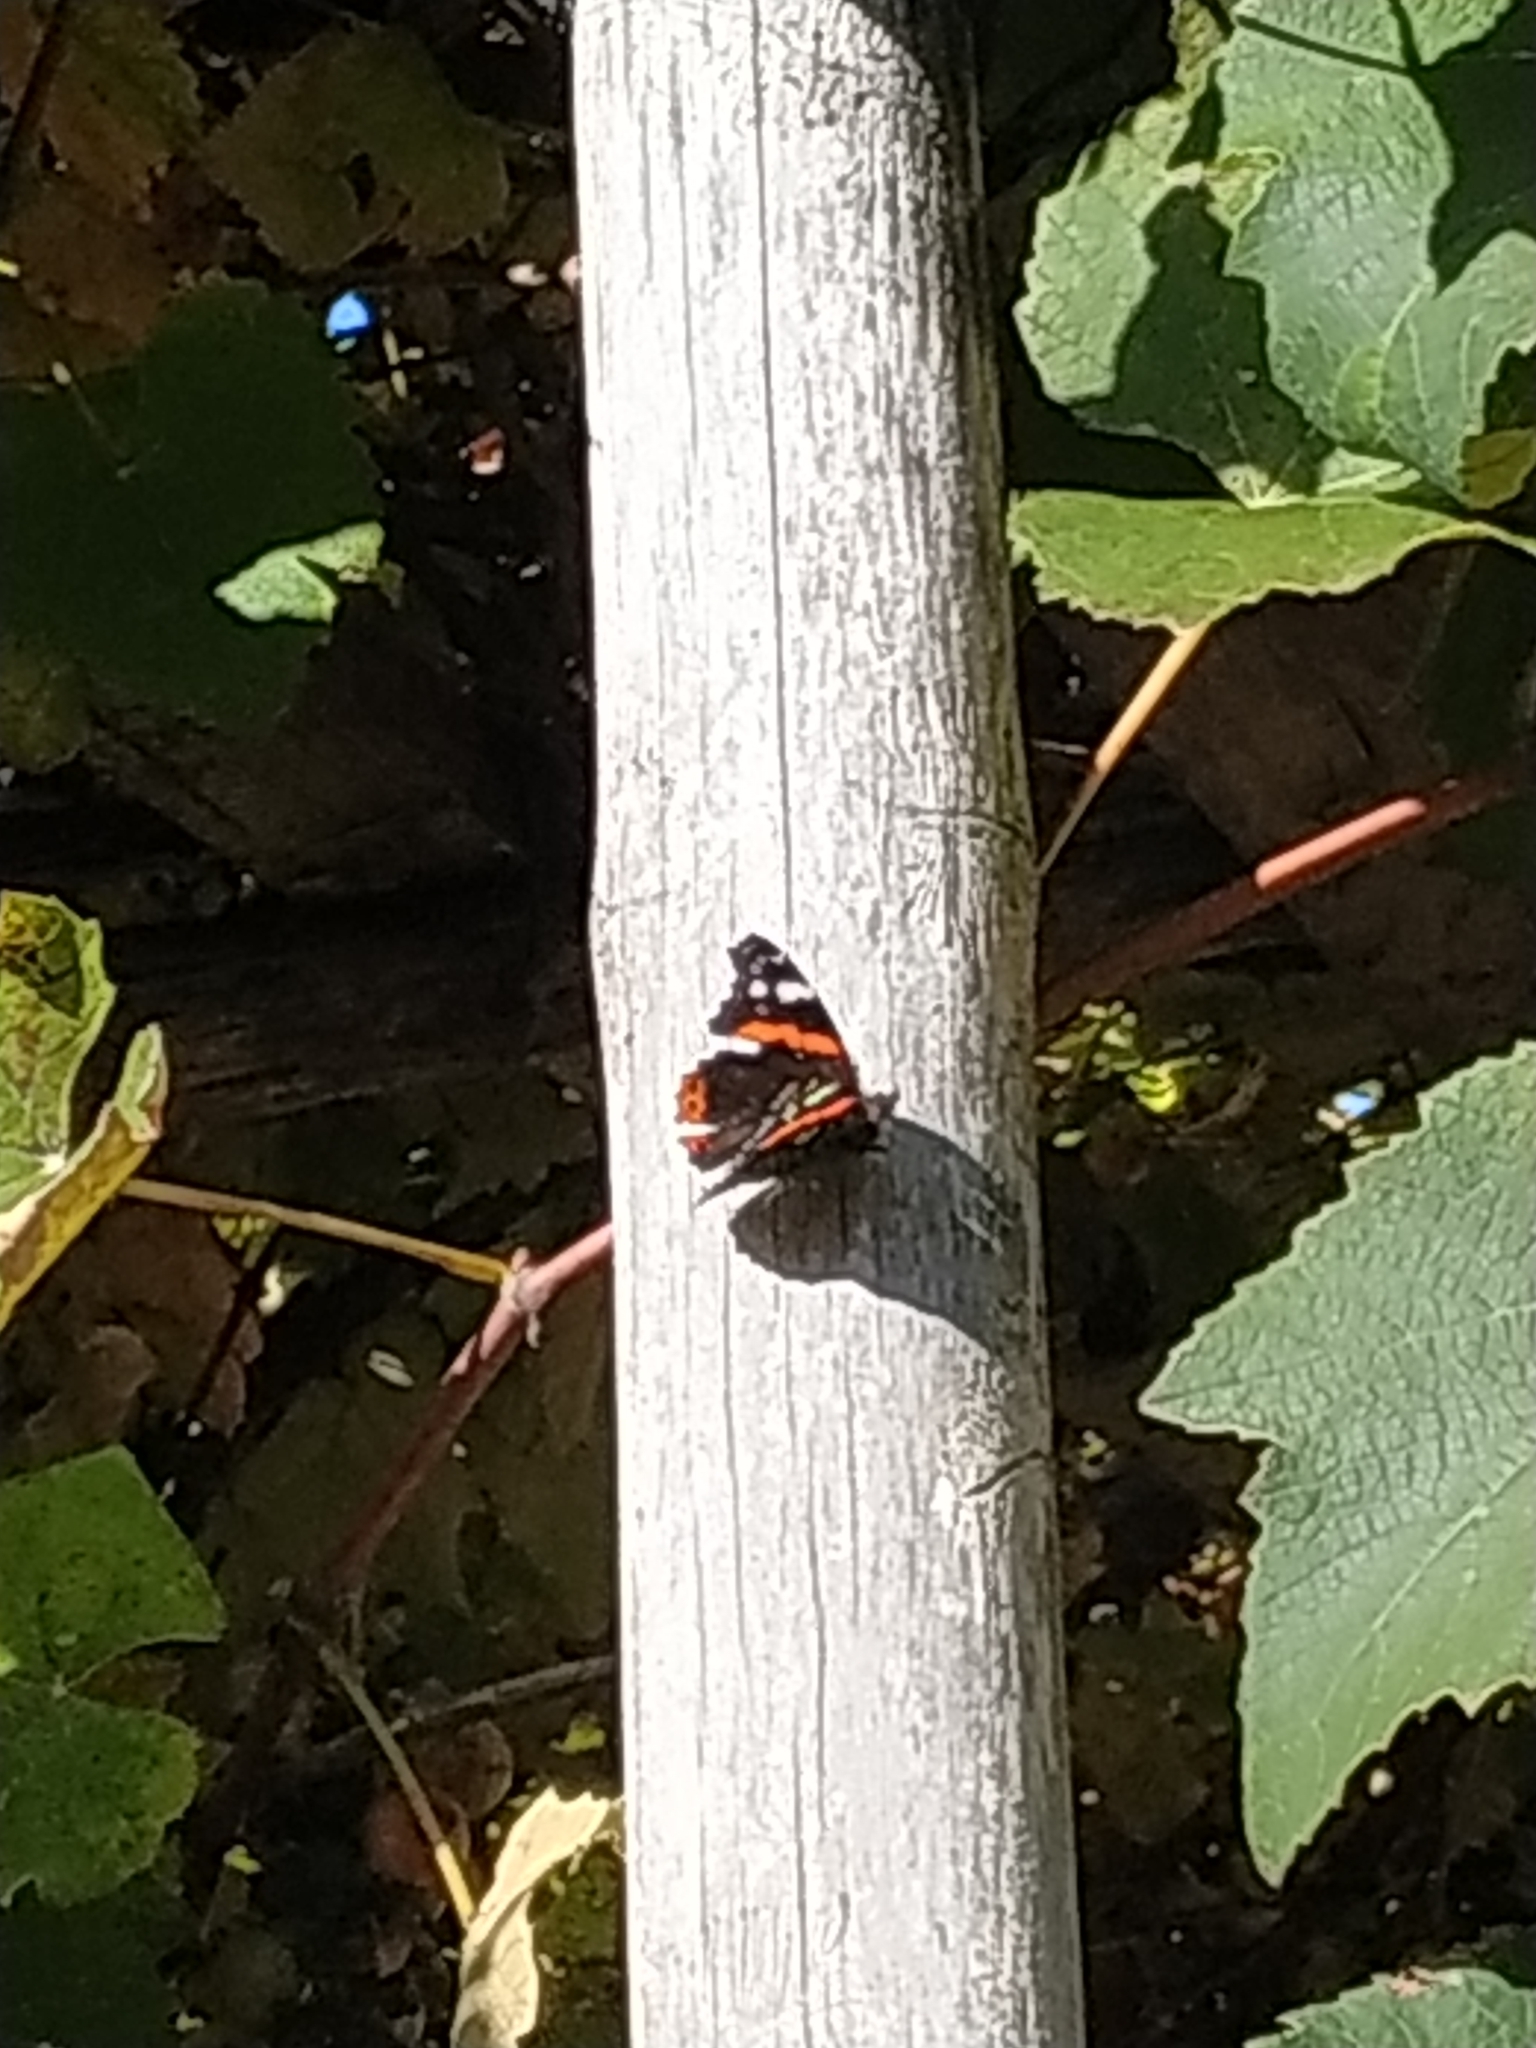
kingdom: Animalia
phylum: Arthropoda
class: Insecta
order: Lepidoptera
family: Nymphalidae
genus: Vanessa
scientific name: Vanessa atalanta
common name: Red admiral
